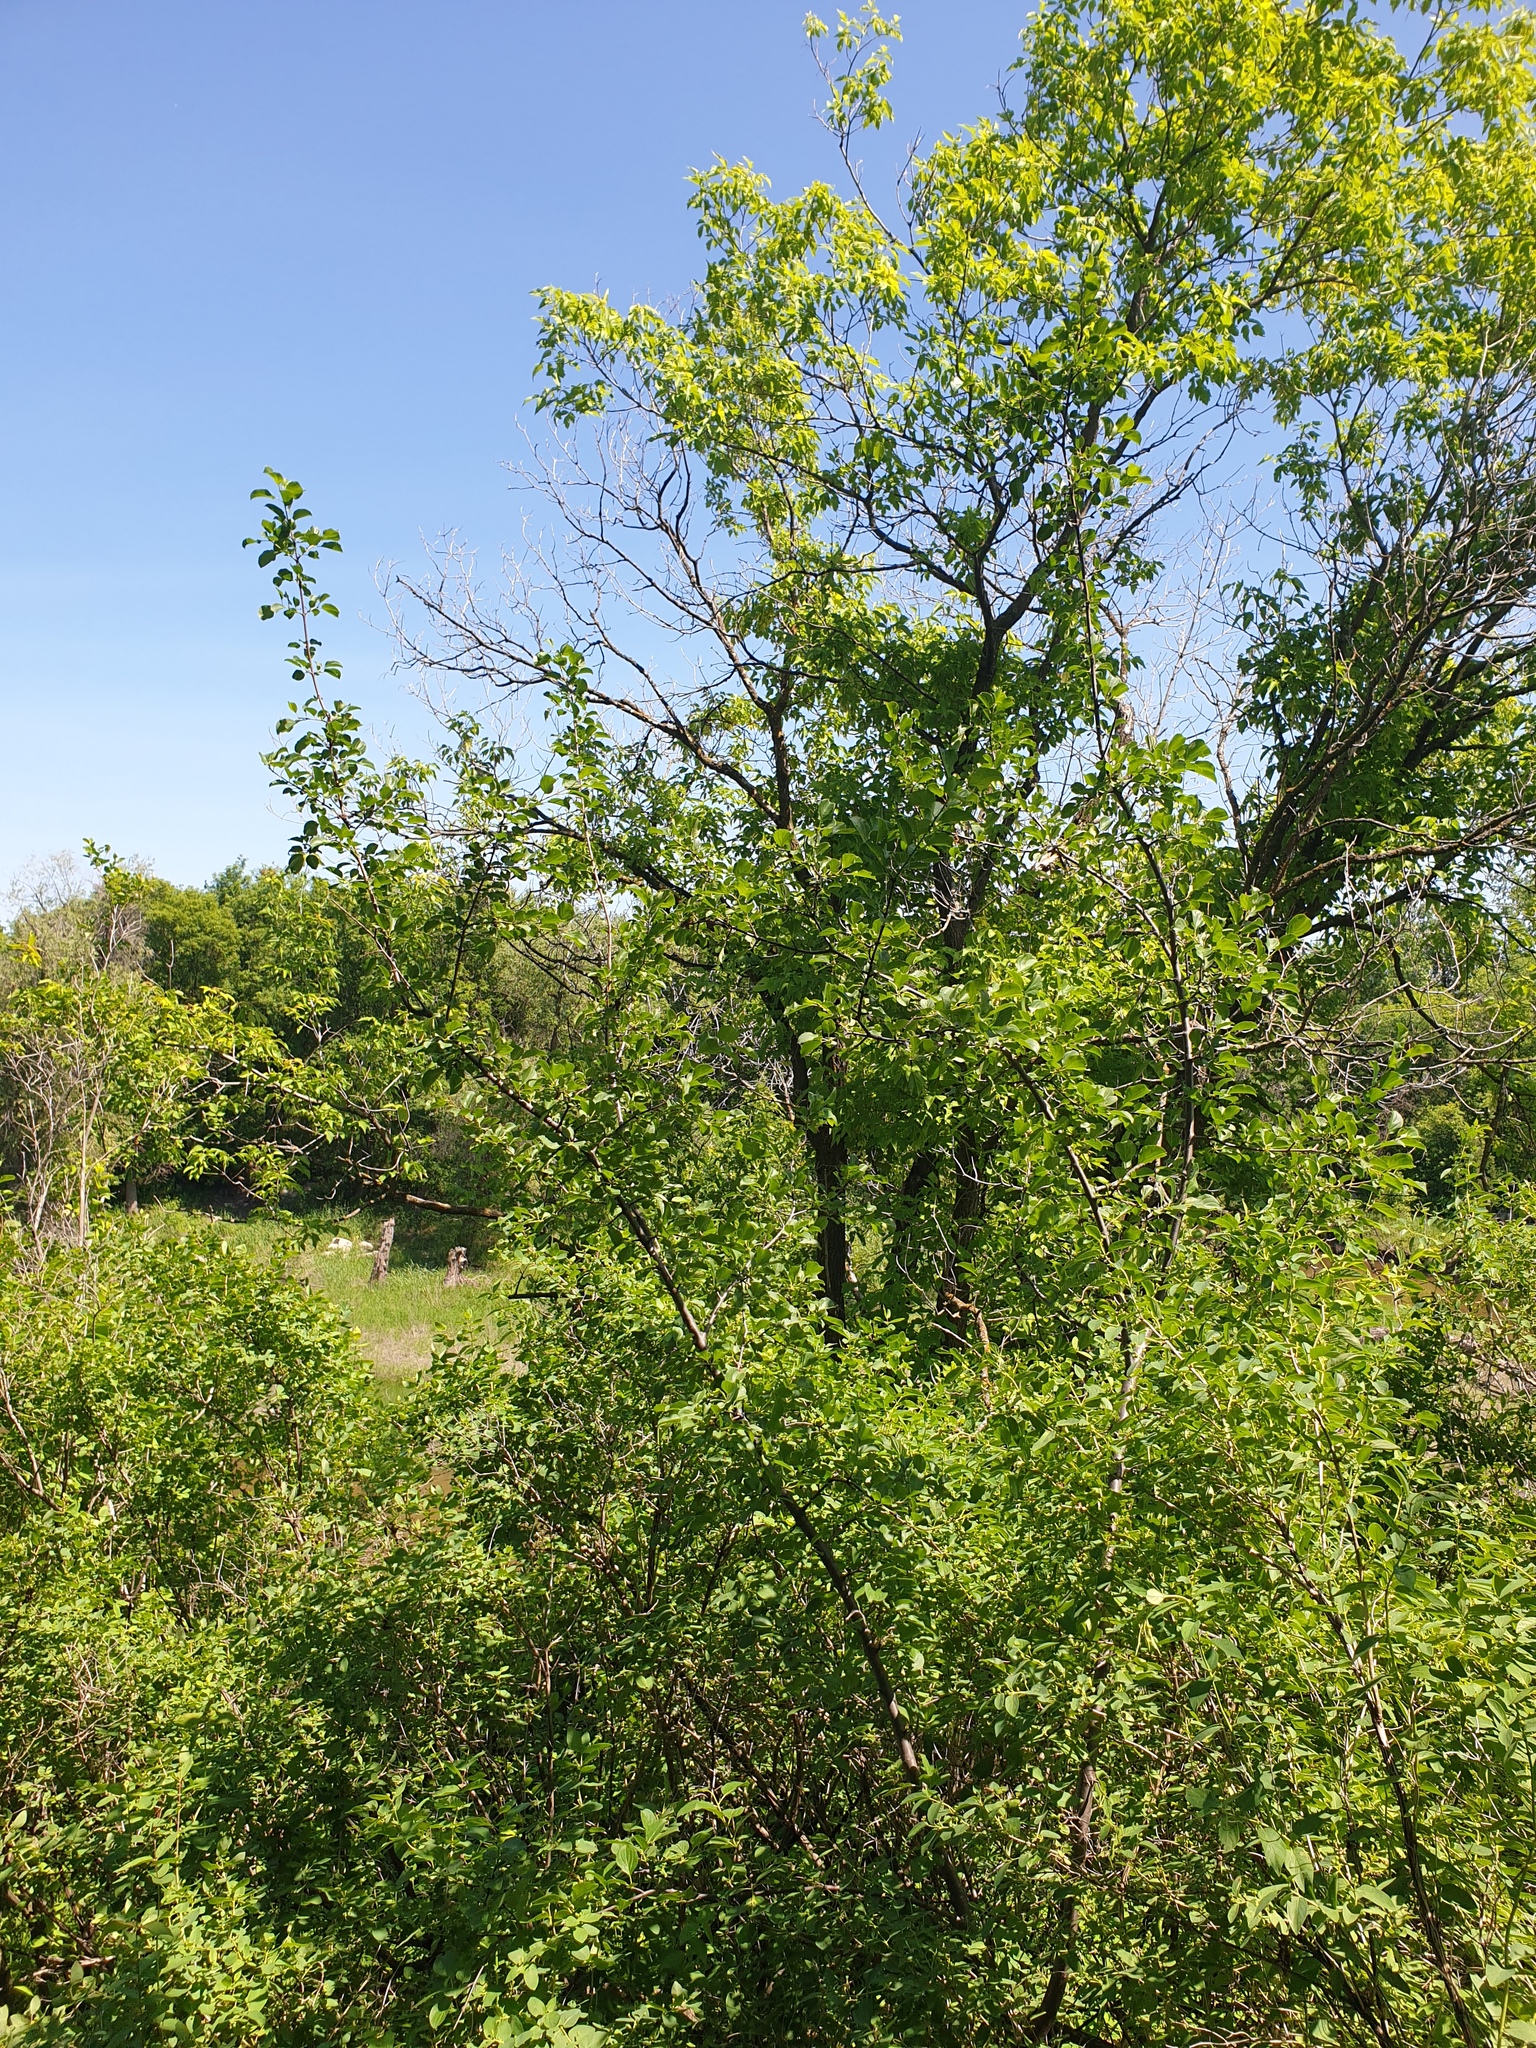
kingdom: Plantae
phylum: Tracheophyta
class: Magnoliopsida
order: Rosales
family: Rhamnaceae
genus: Rhamnus
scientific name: Rhamnus cathartica
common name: Common buckthorn
